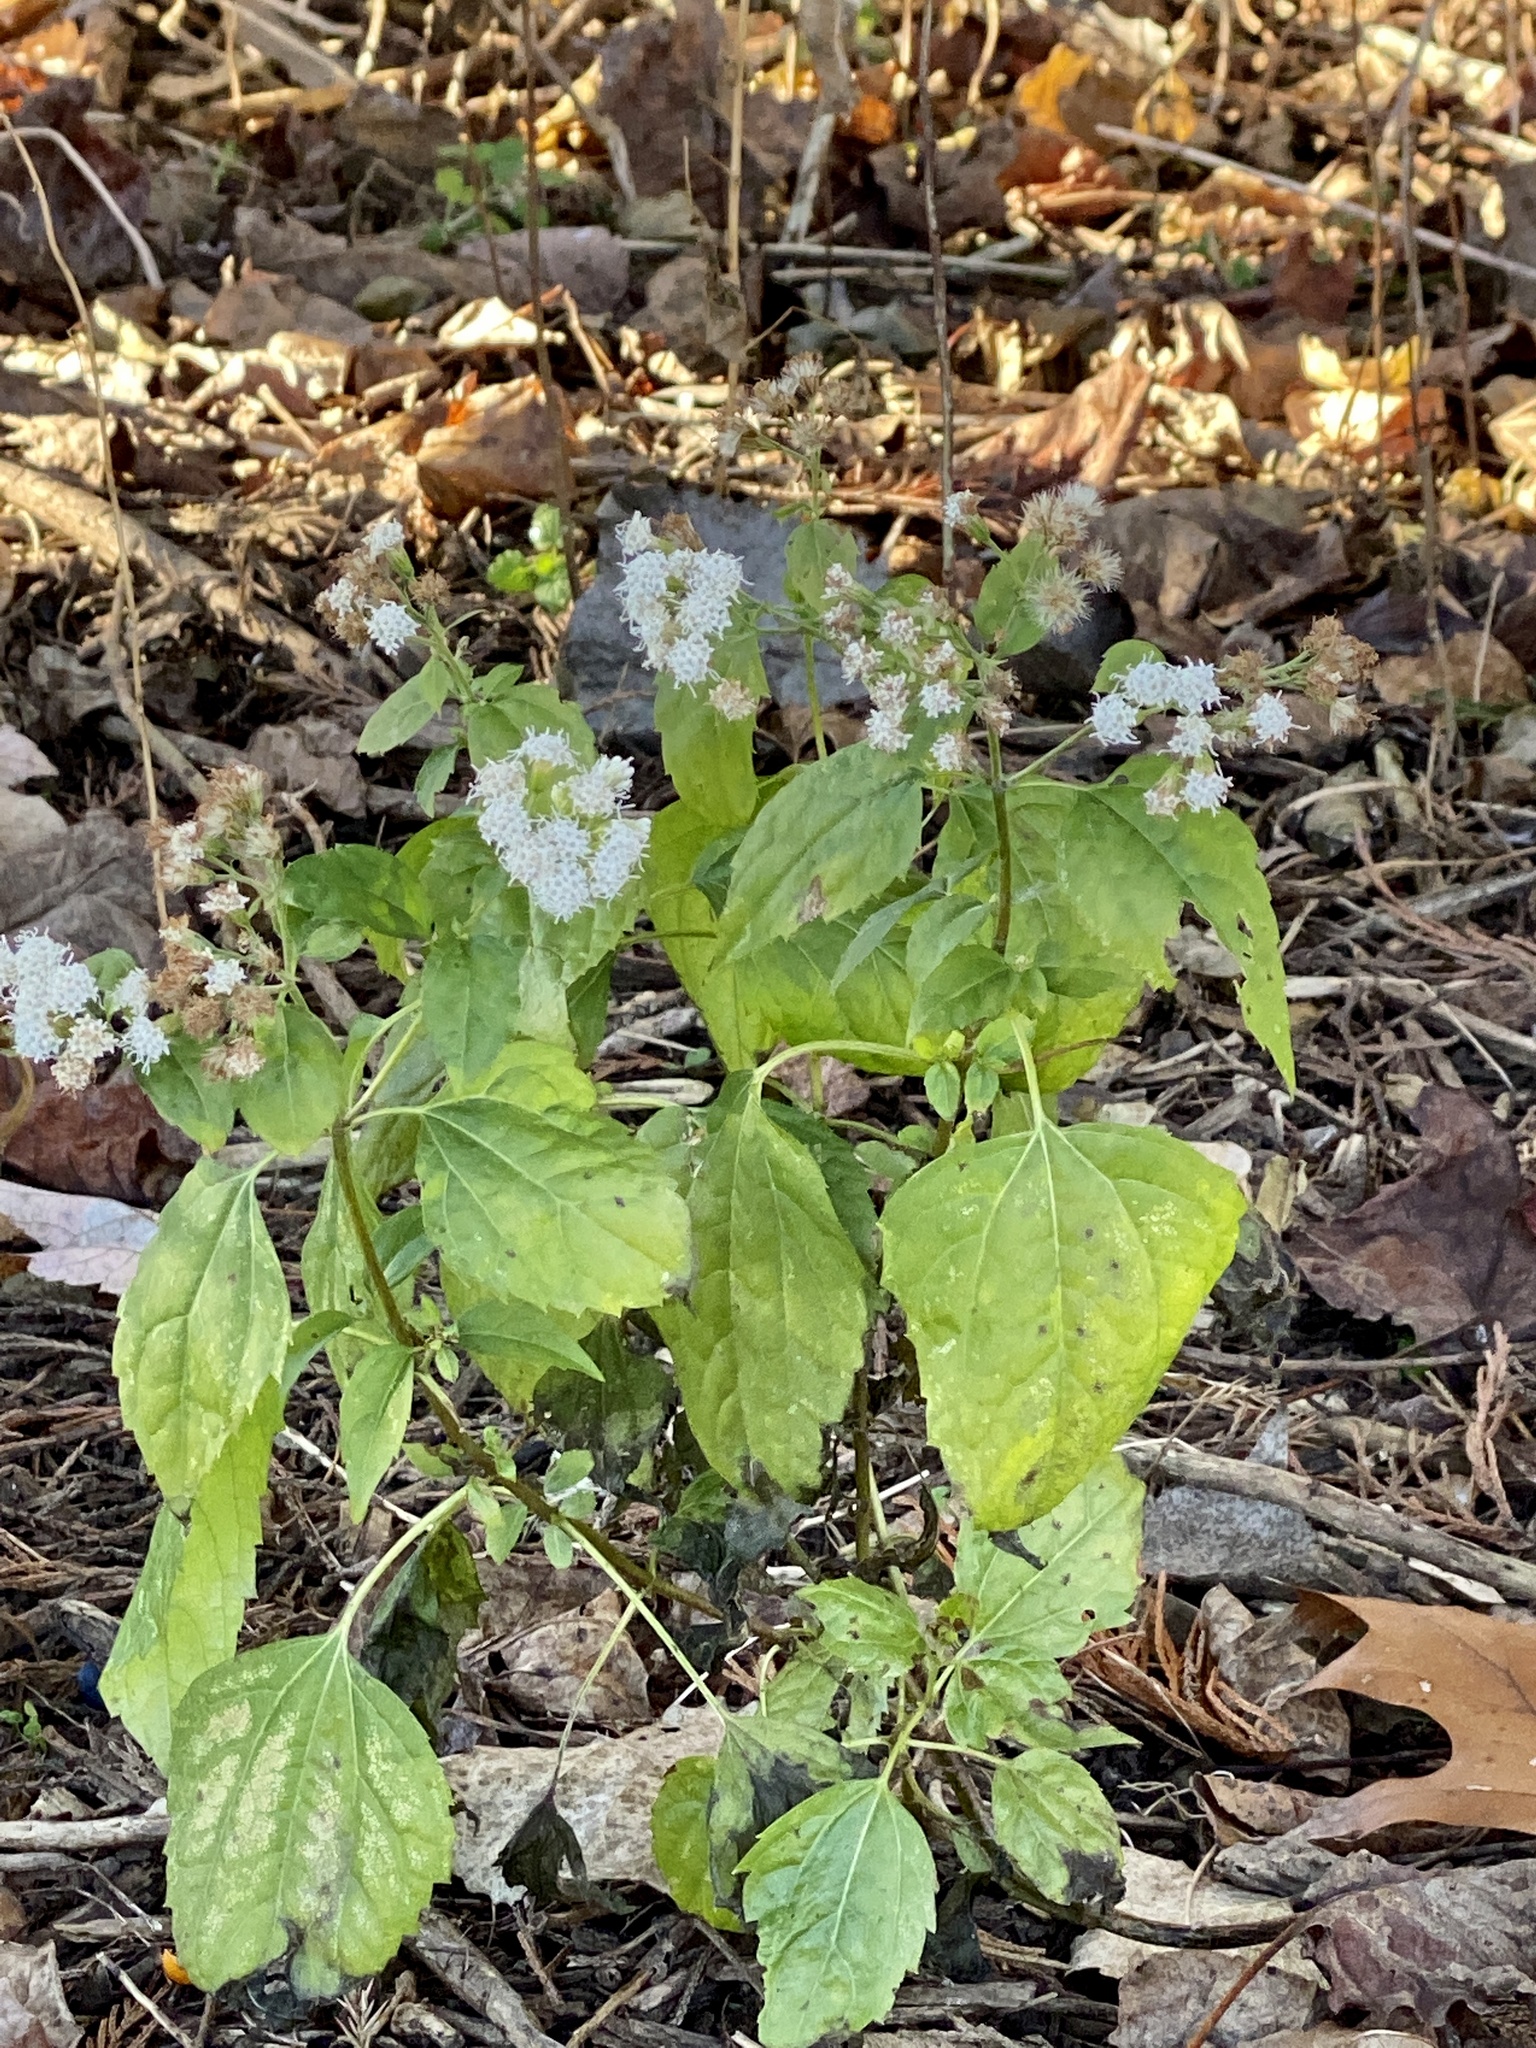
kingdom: Plantae
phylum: Tracheophyta
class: Magnoliopsida
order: Asterales
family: Asteraceae
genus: Ageratina
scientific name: Ageratina altissima
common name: White snakeroot
